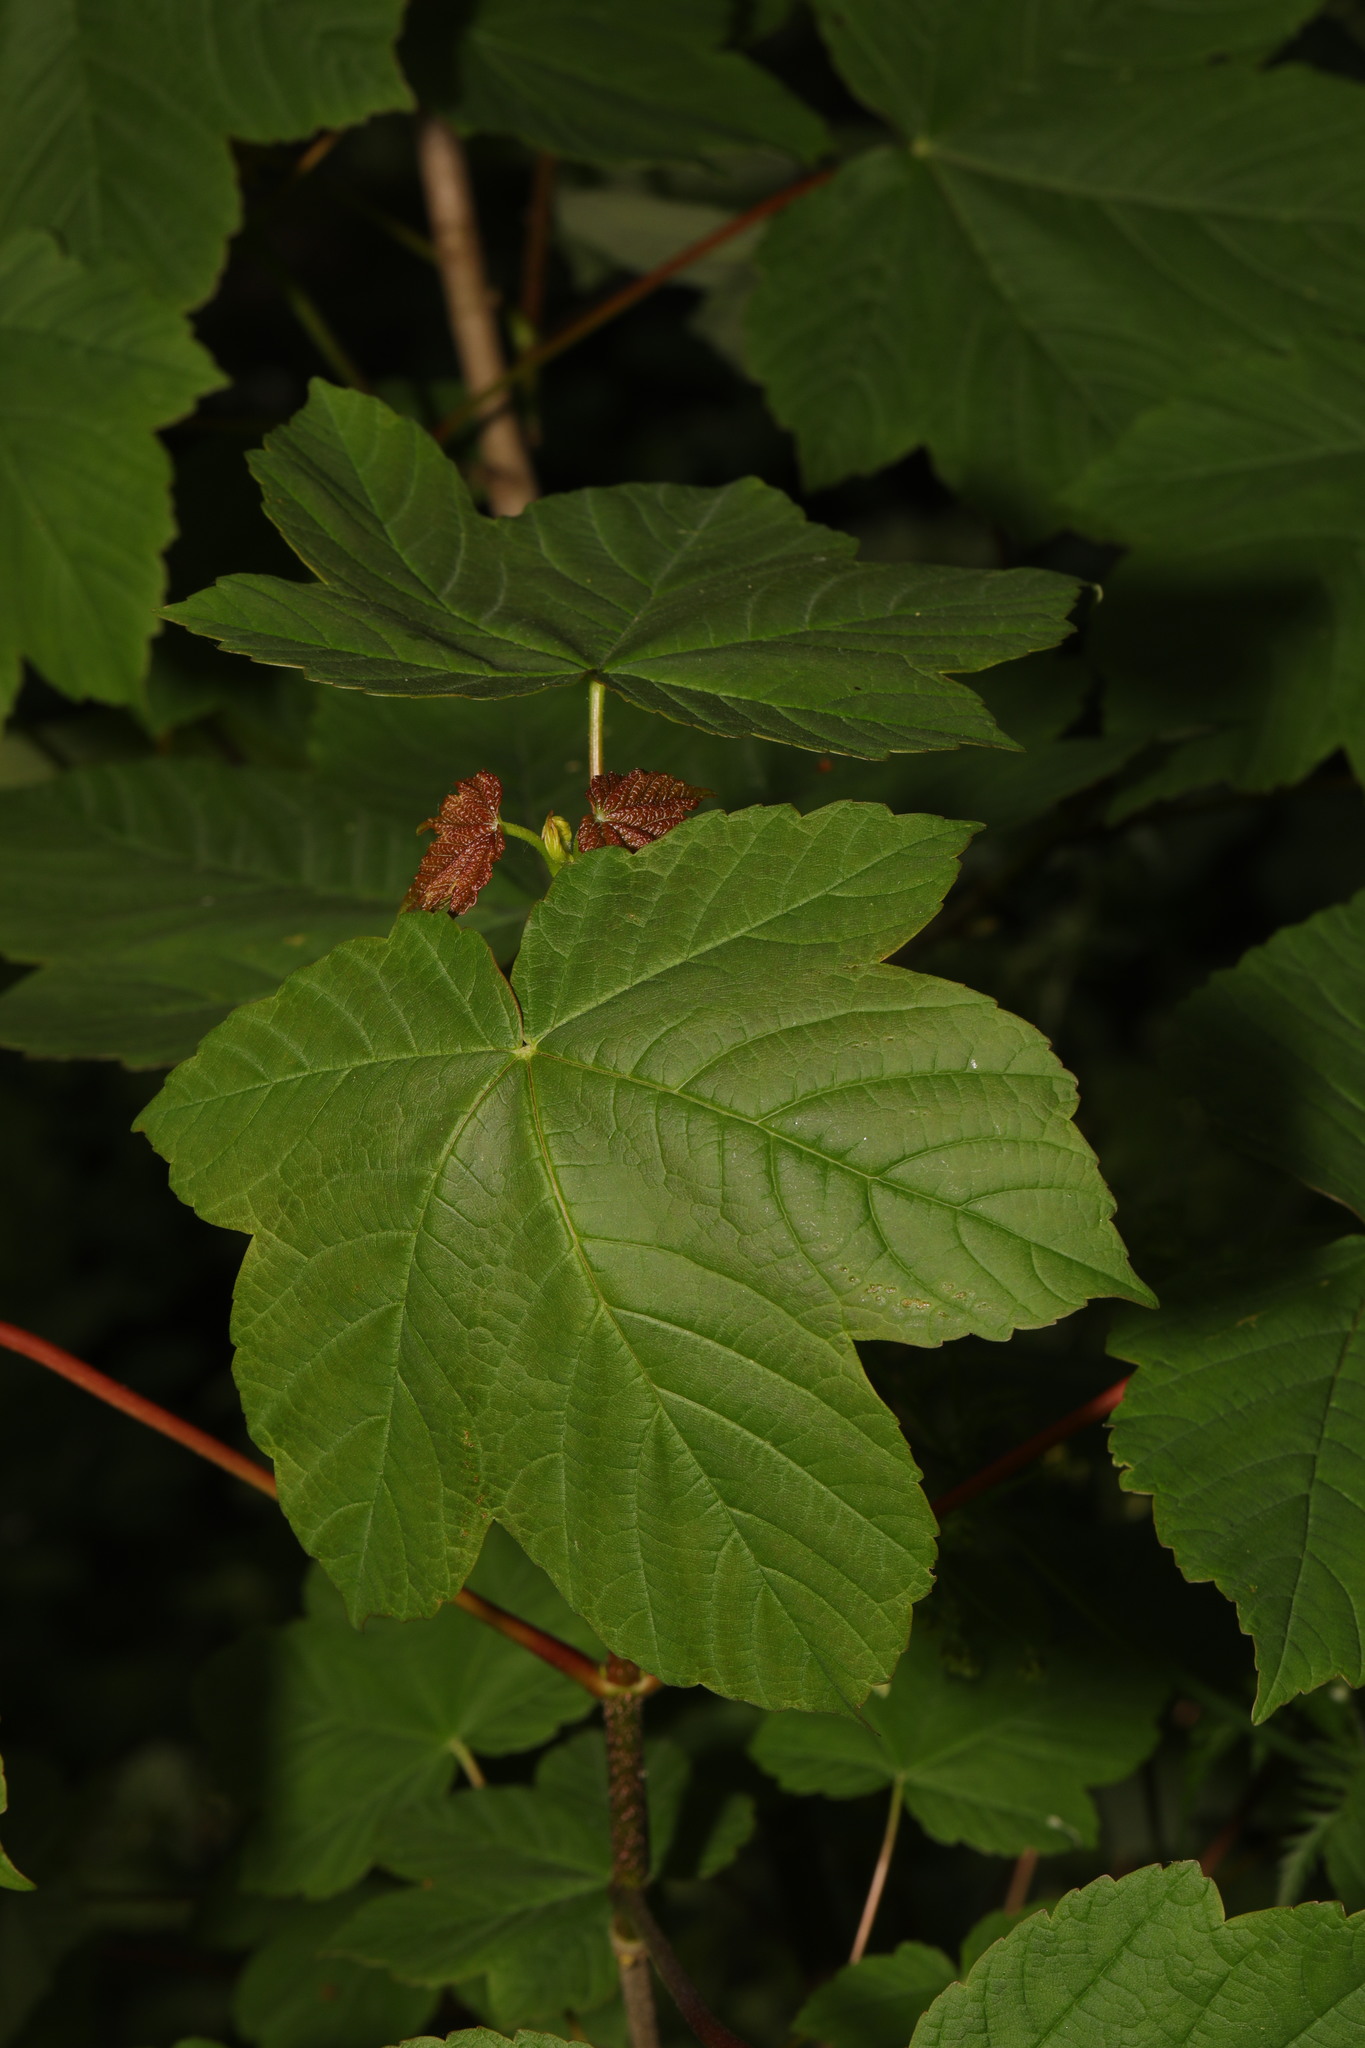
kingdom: Plantae
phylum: Tracheophyta
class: Magnoliopsida
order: Sapindales
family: Sapindaceae
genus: Acer
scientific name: Acer pseudoplatanus
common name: Sycamore
